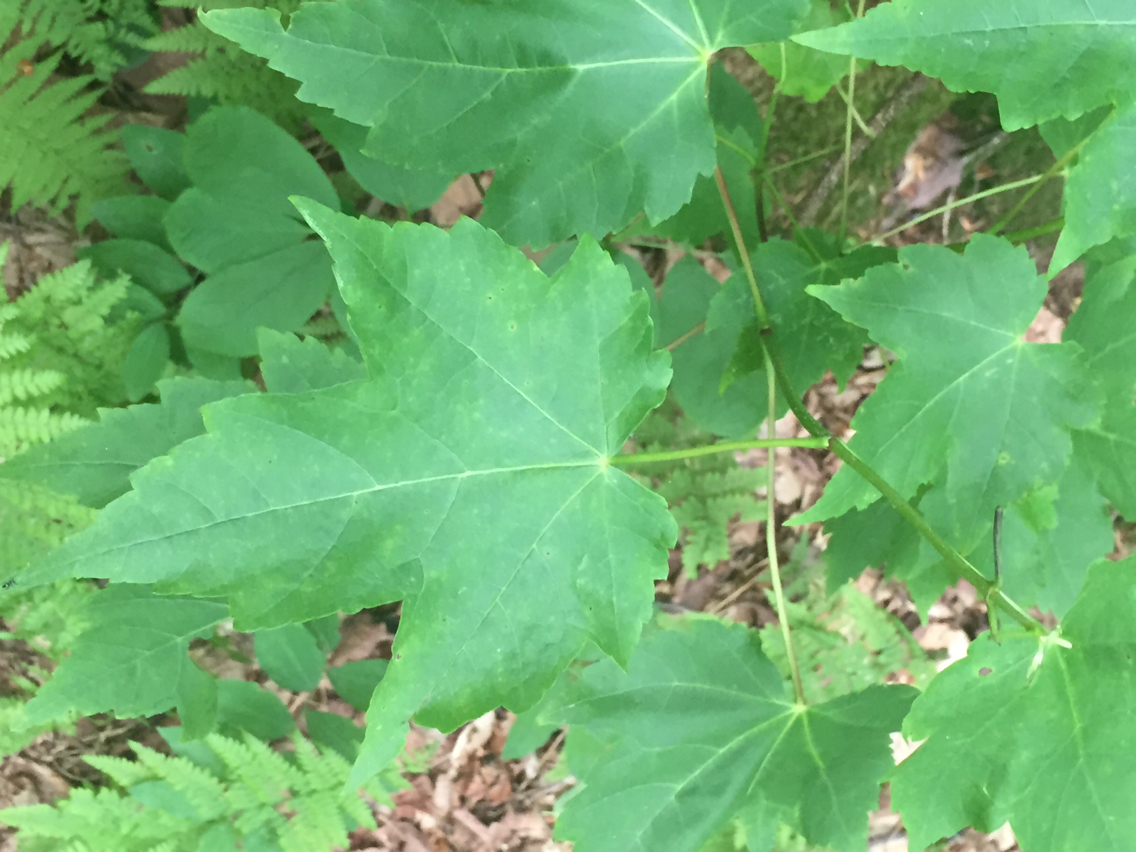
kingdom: Plantae
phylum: Tracheophyta
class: Magnoliopsida
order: Sapindales
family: Sapindaceae
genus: Acer
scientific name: Acer rubrum
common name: Red maple
